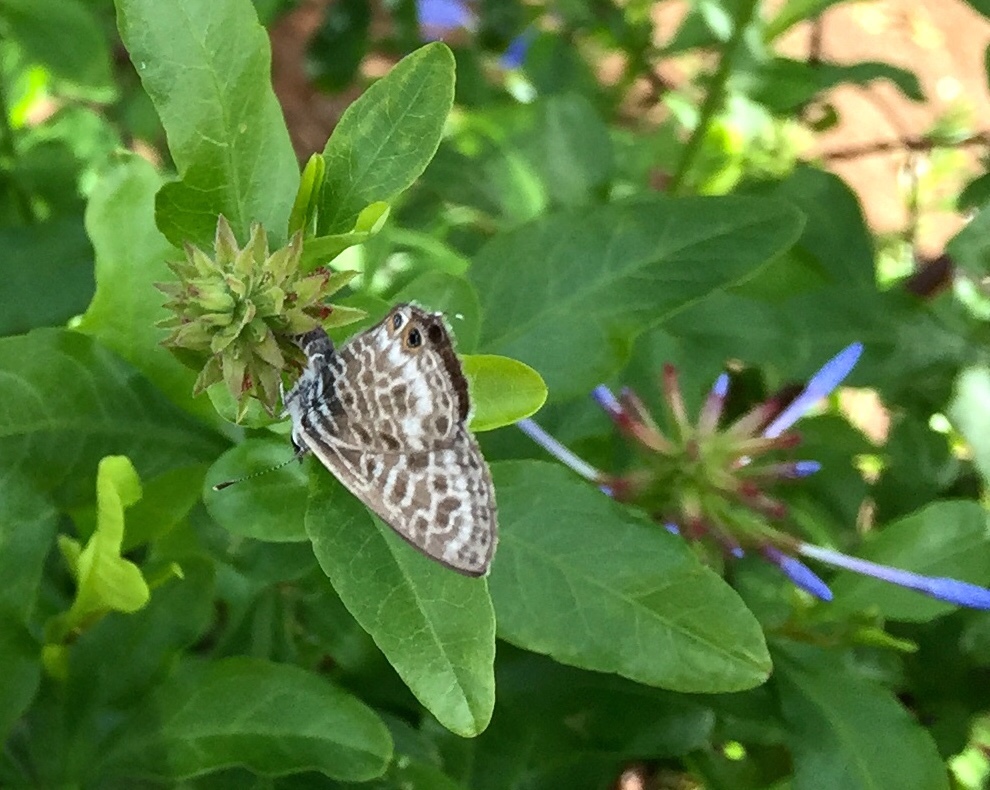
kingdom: Animalia
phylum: Arthropoda
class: Insecta
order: Lepidoptera
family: Lycaenidae
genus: Leptotes
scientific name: Leptotes pirithous
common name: Lang's short-tailed blue
